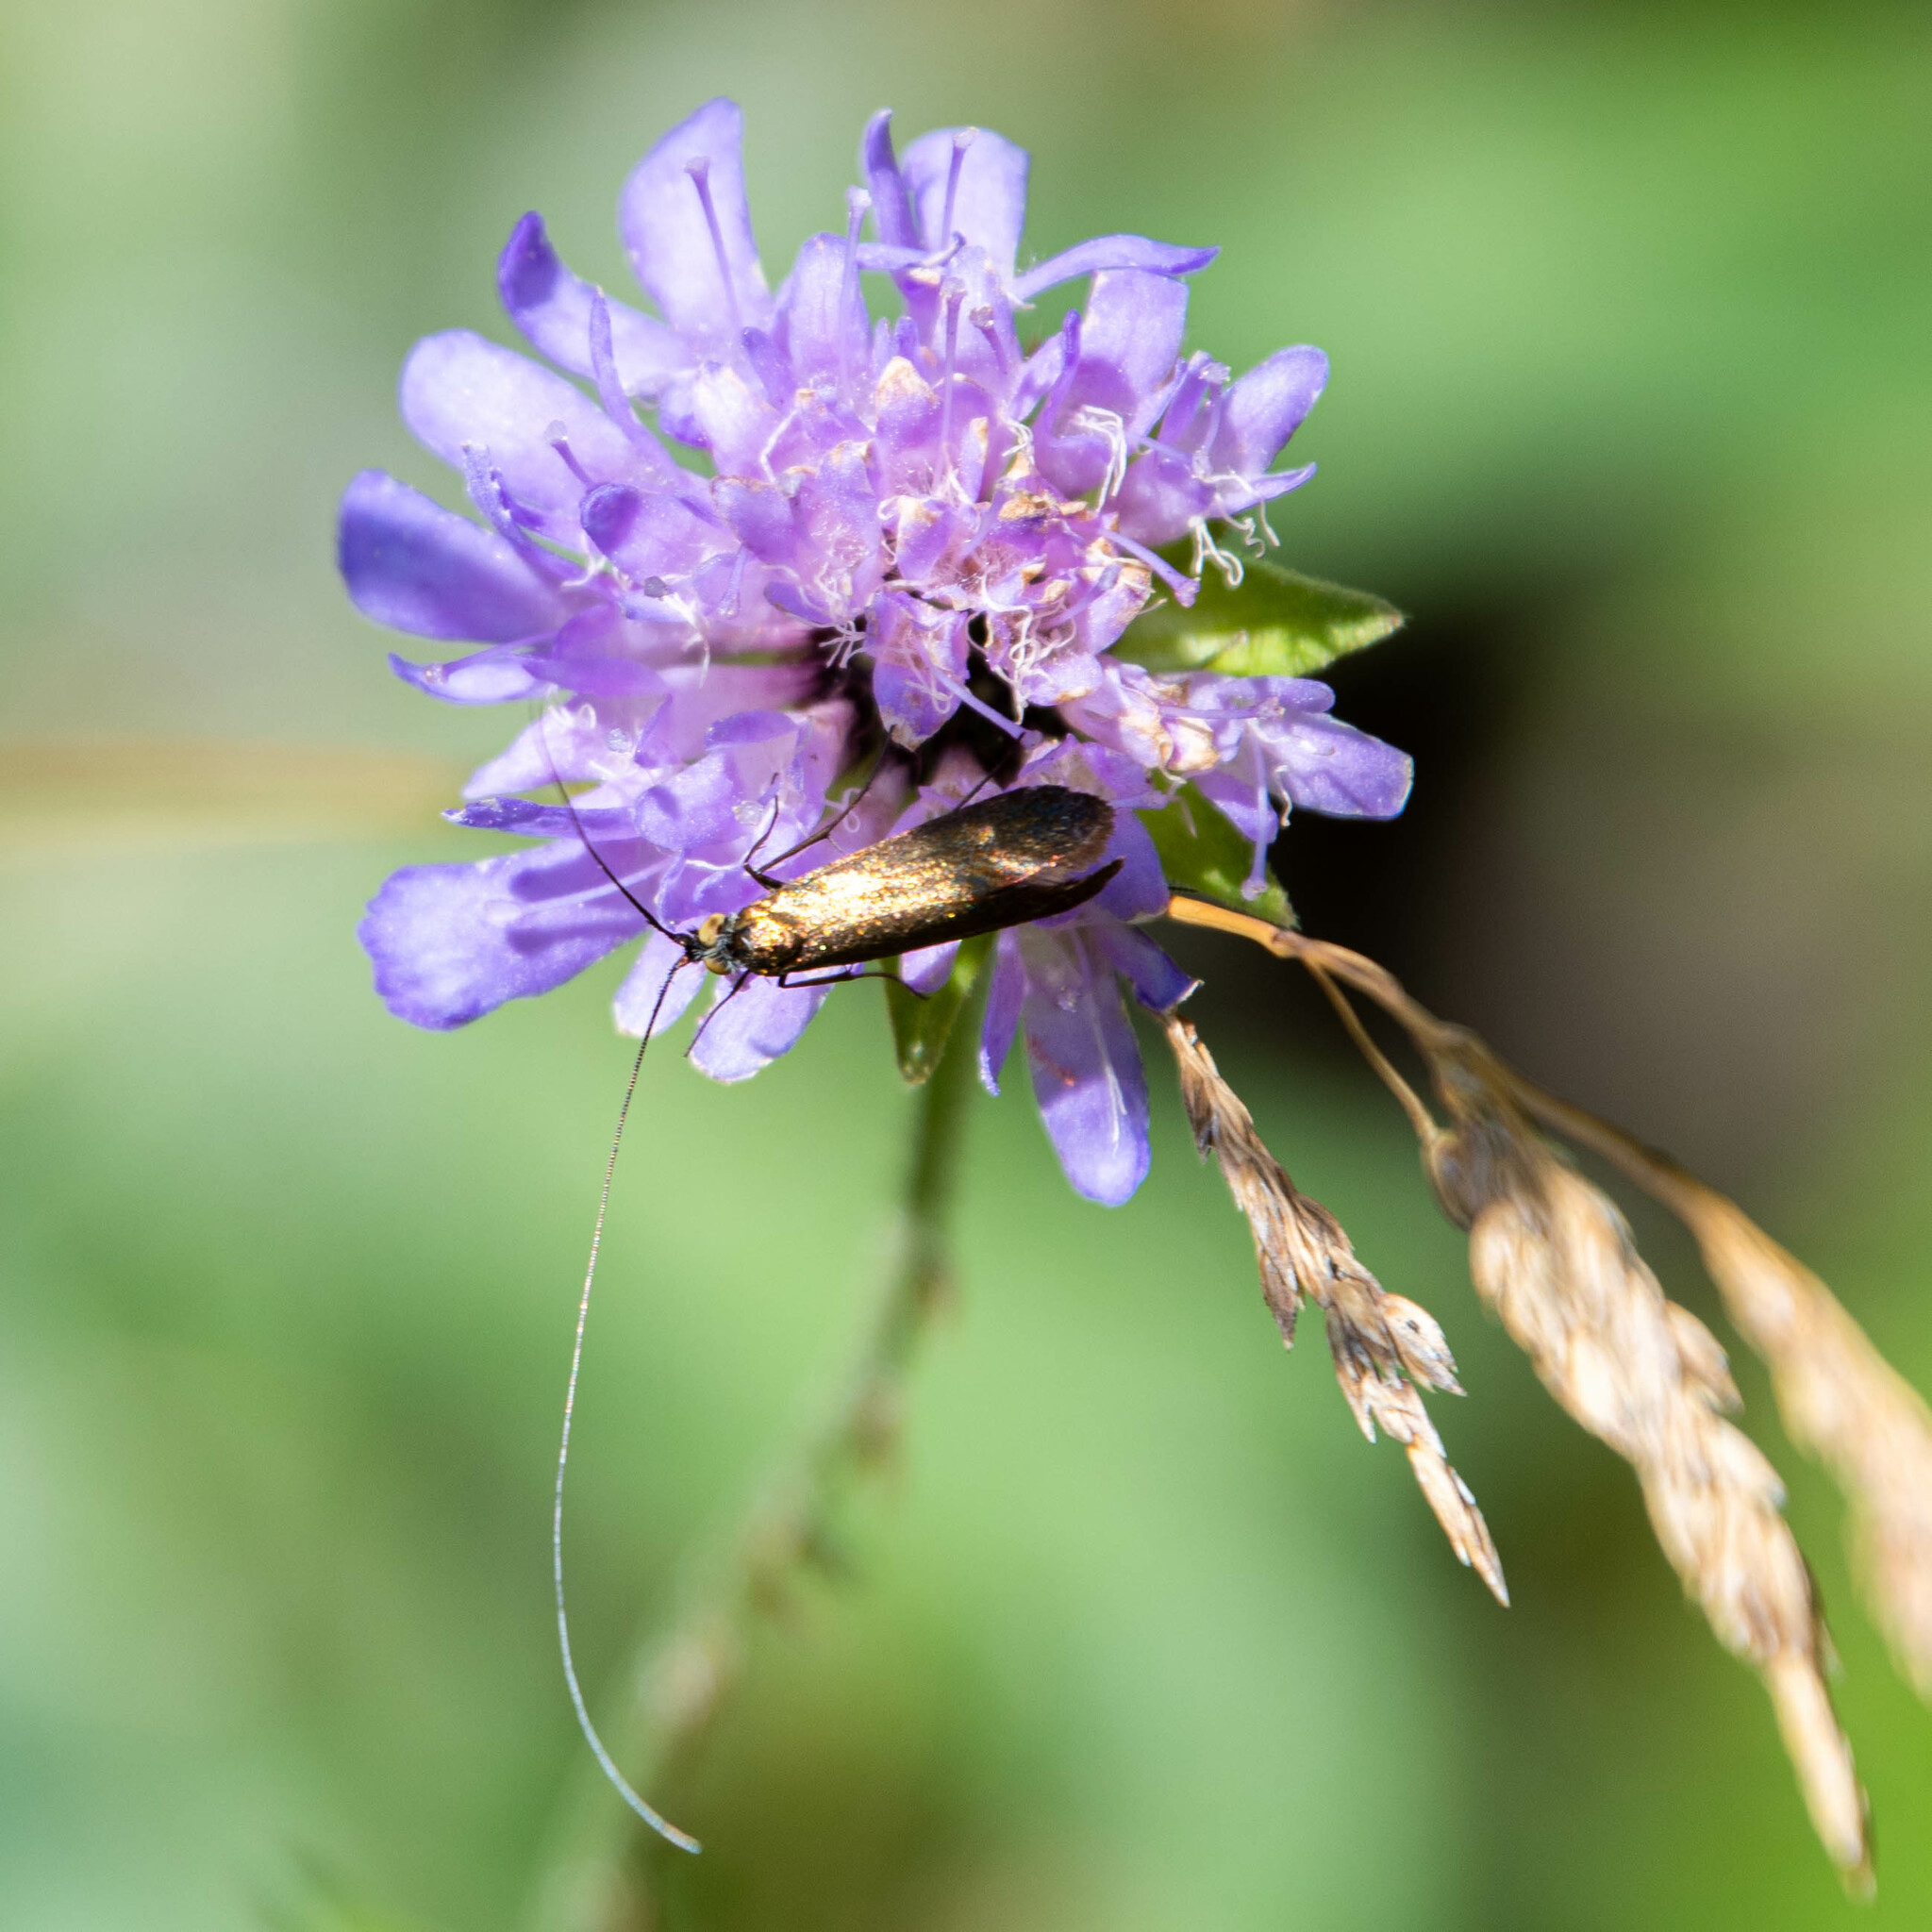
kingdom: Animalia
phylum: Arthropoda
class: Insecta
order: Lepidoptera
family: Adelidae
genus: Nemophora
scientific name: Nemophora metallica
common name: Brassy long-horn
